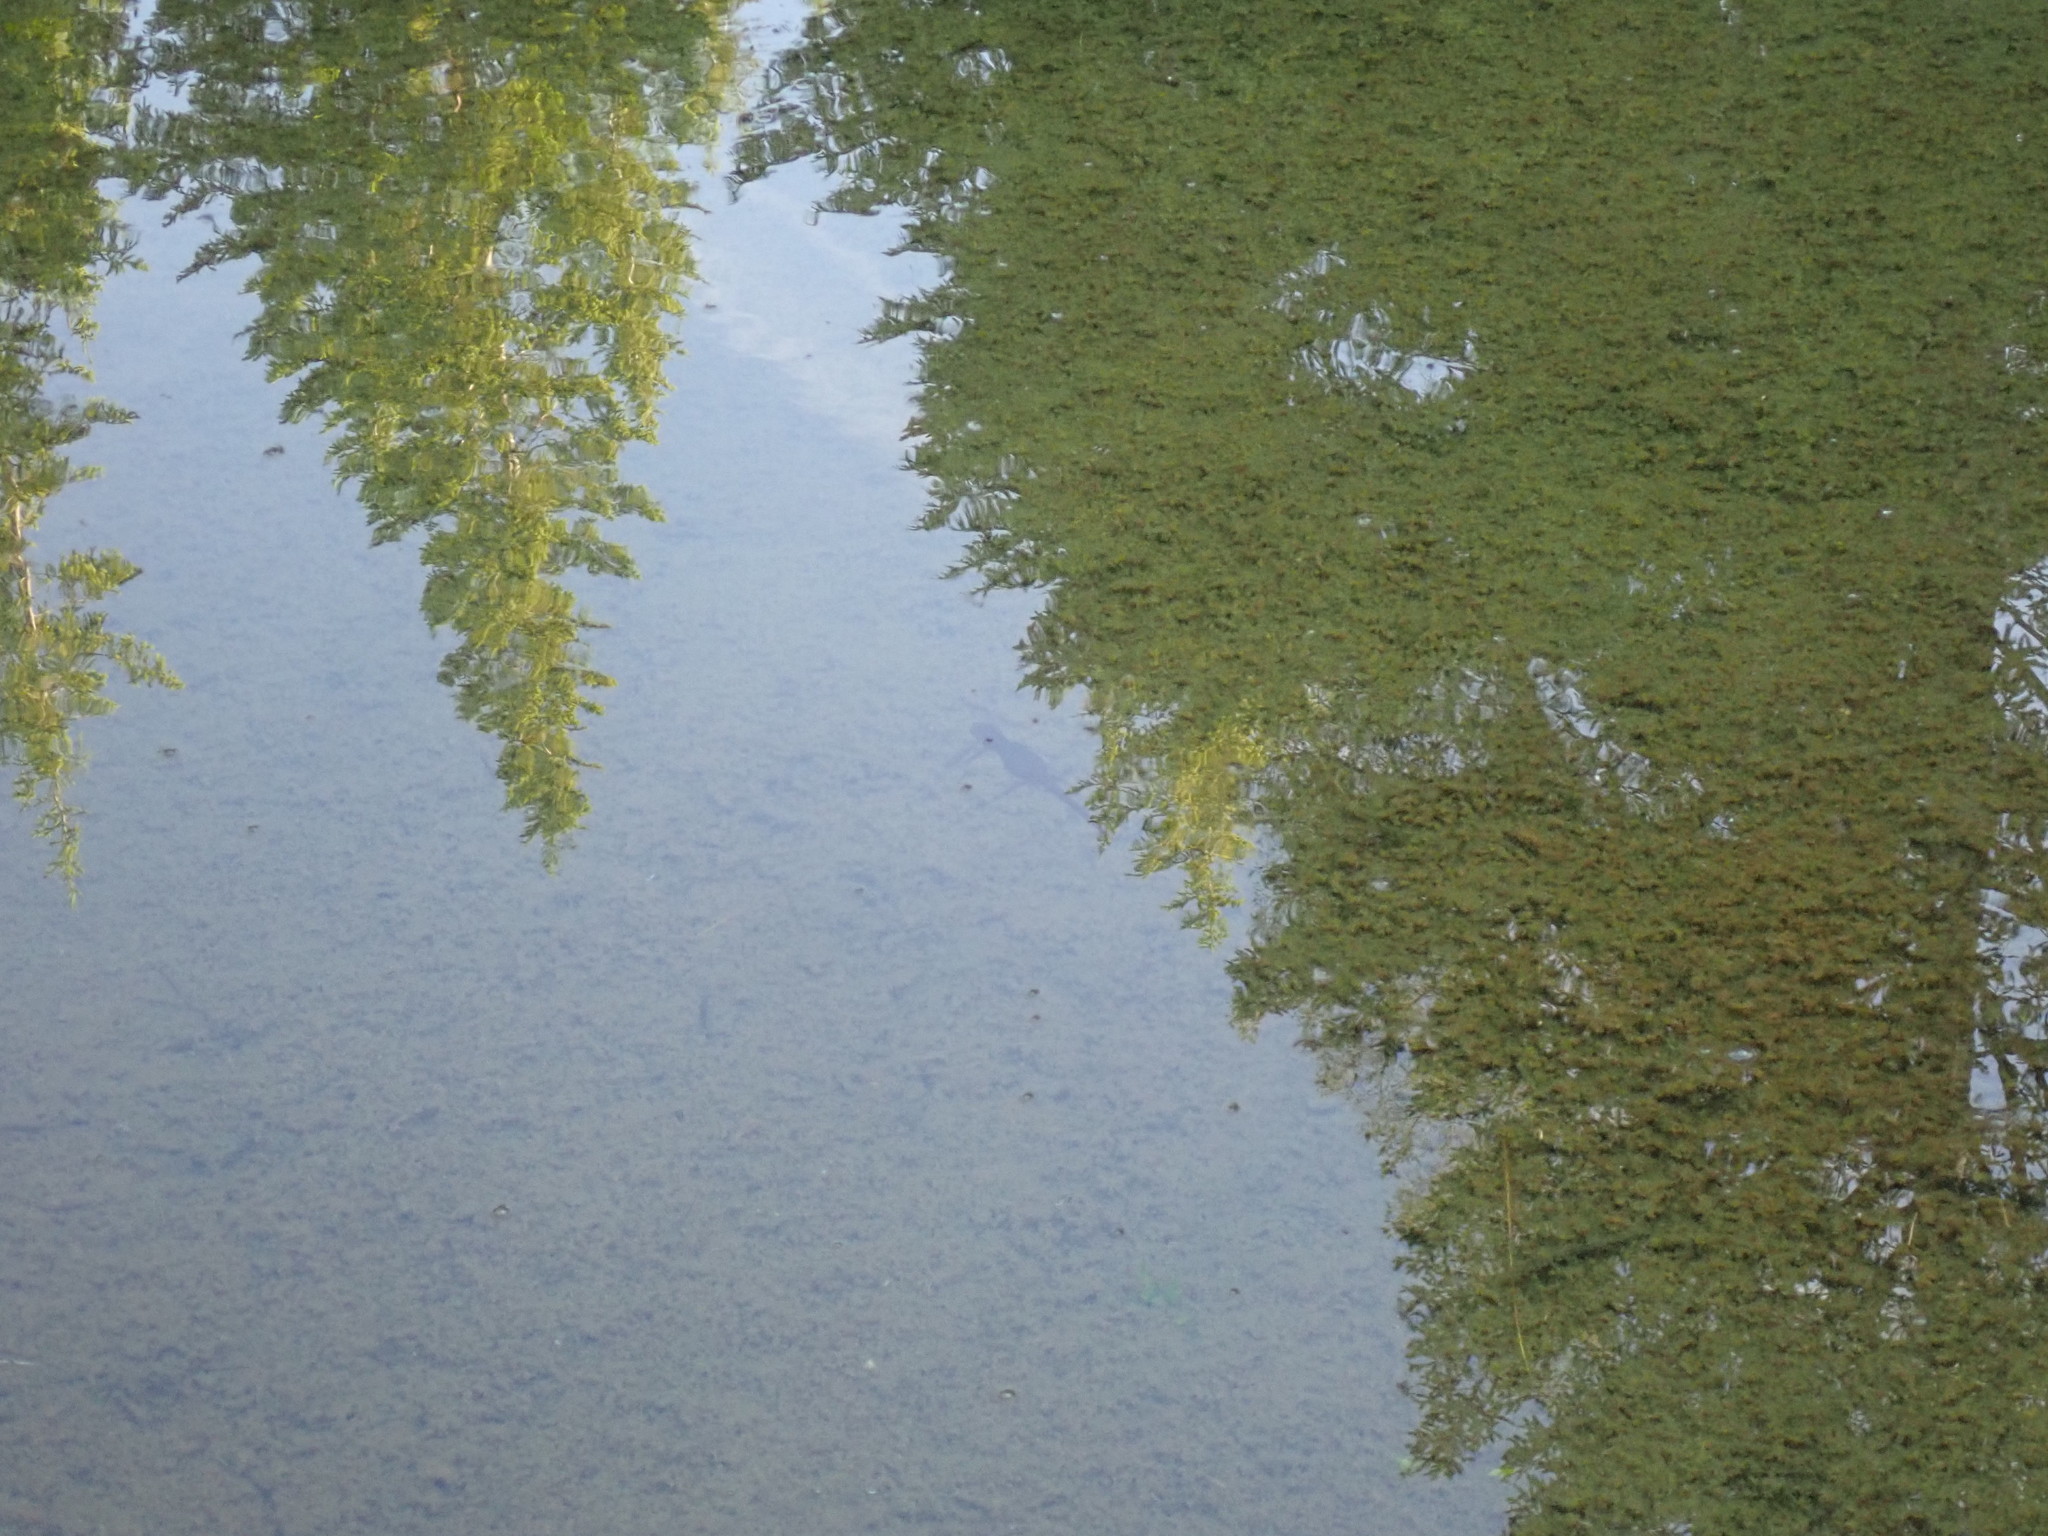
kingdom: Animalia
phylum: Chordata
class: Amphibia
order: Caudata
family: Salamandridae
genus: Taricha
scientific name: Taricha granulosa
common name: Roughskin newt
